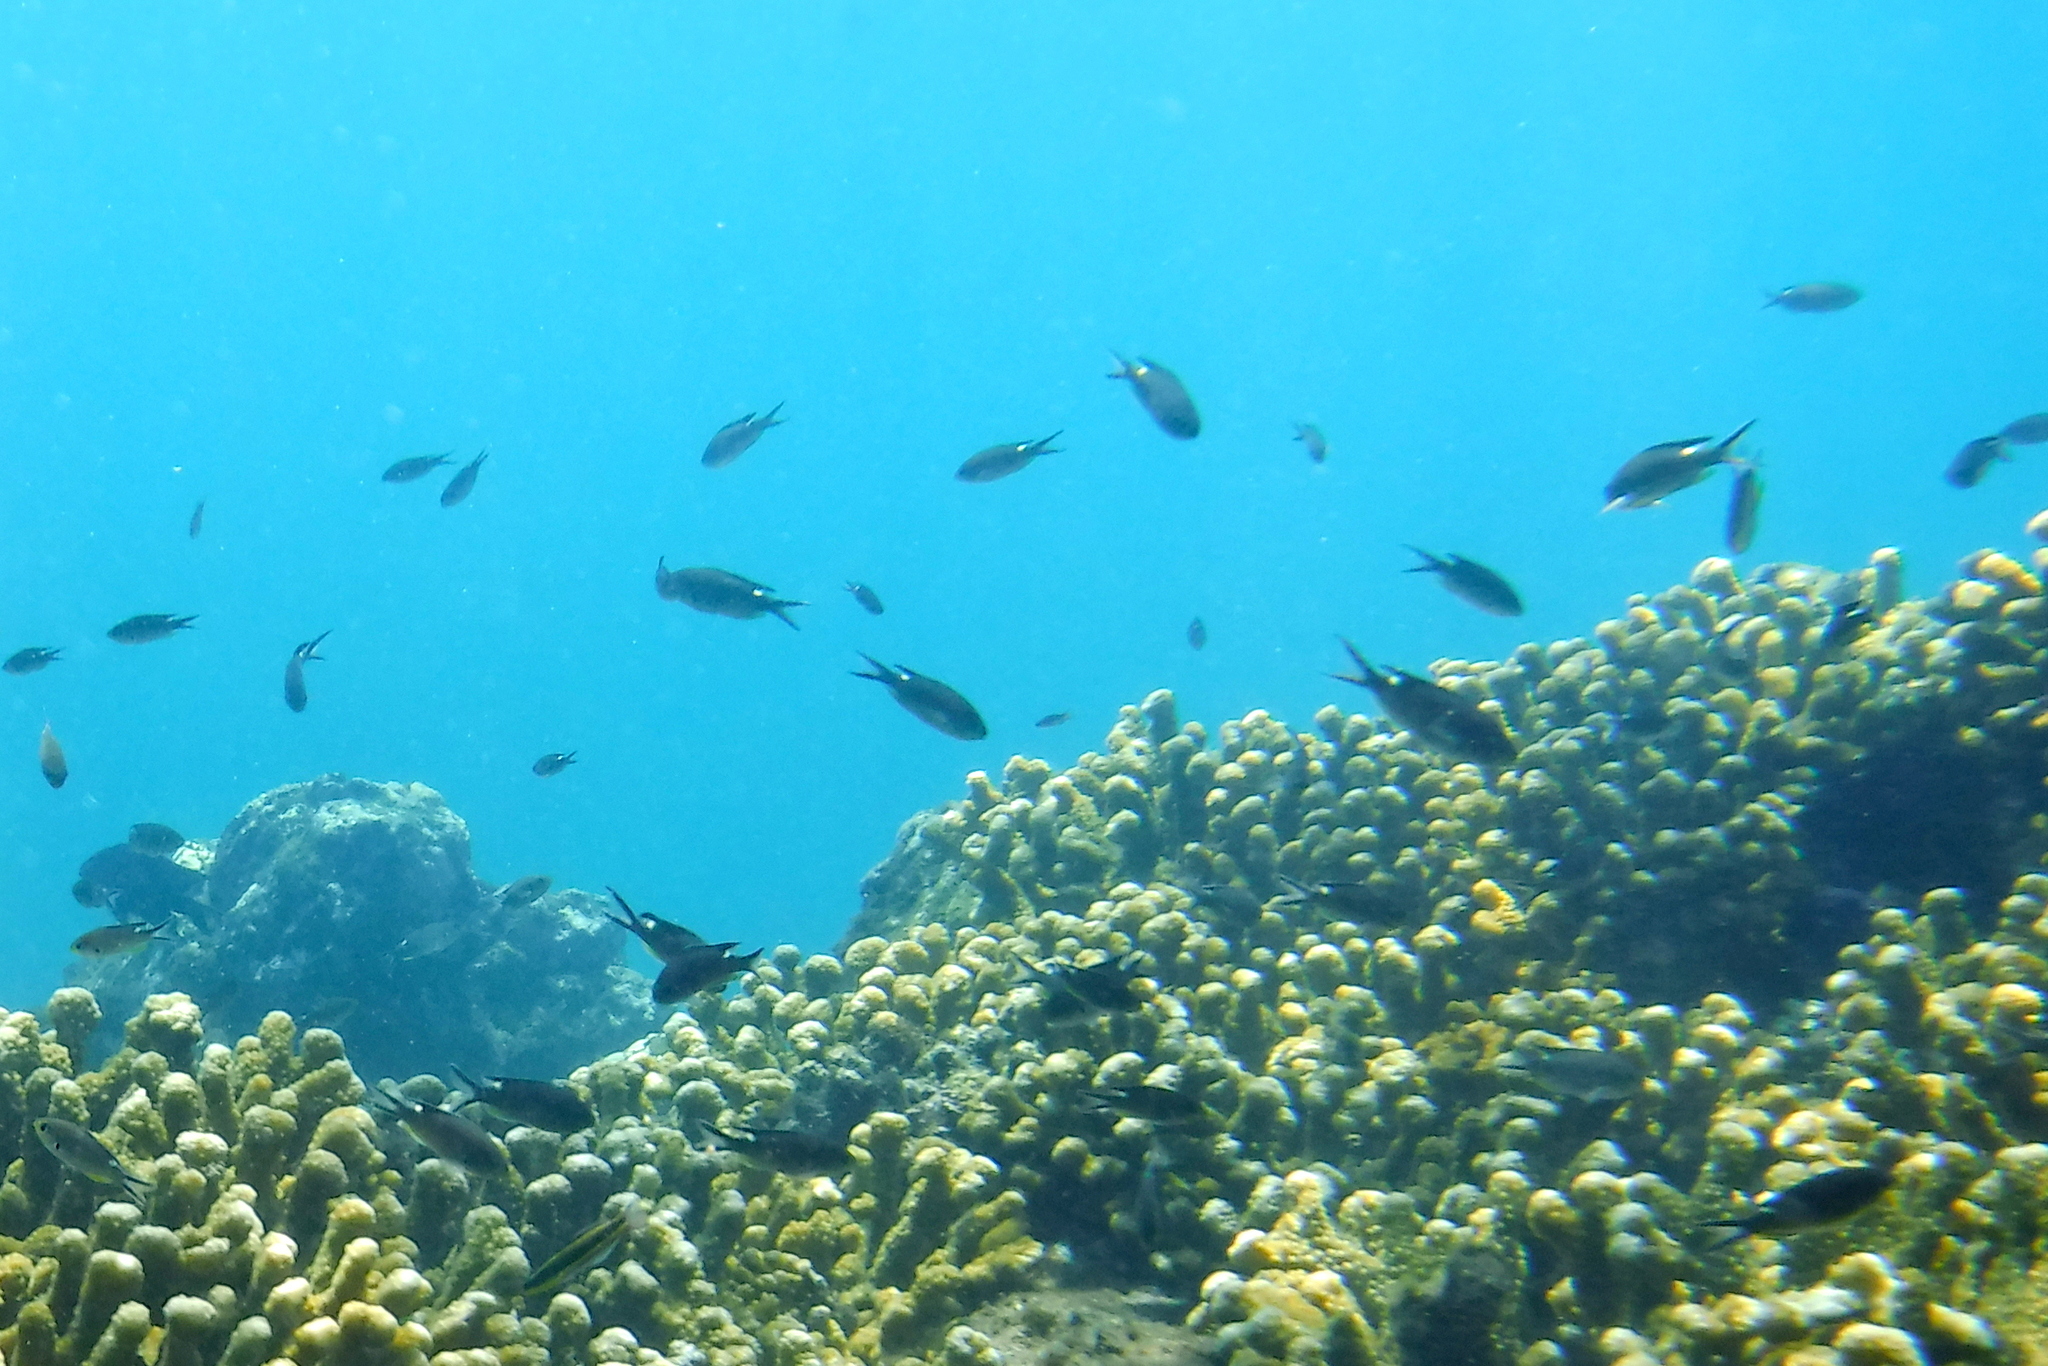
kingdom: Animalia
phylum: Chordata
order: Perciformes
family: Pomacentridae
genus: Chromis
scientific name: Chromis atrilobata
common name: Scissortail damselfish
